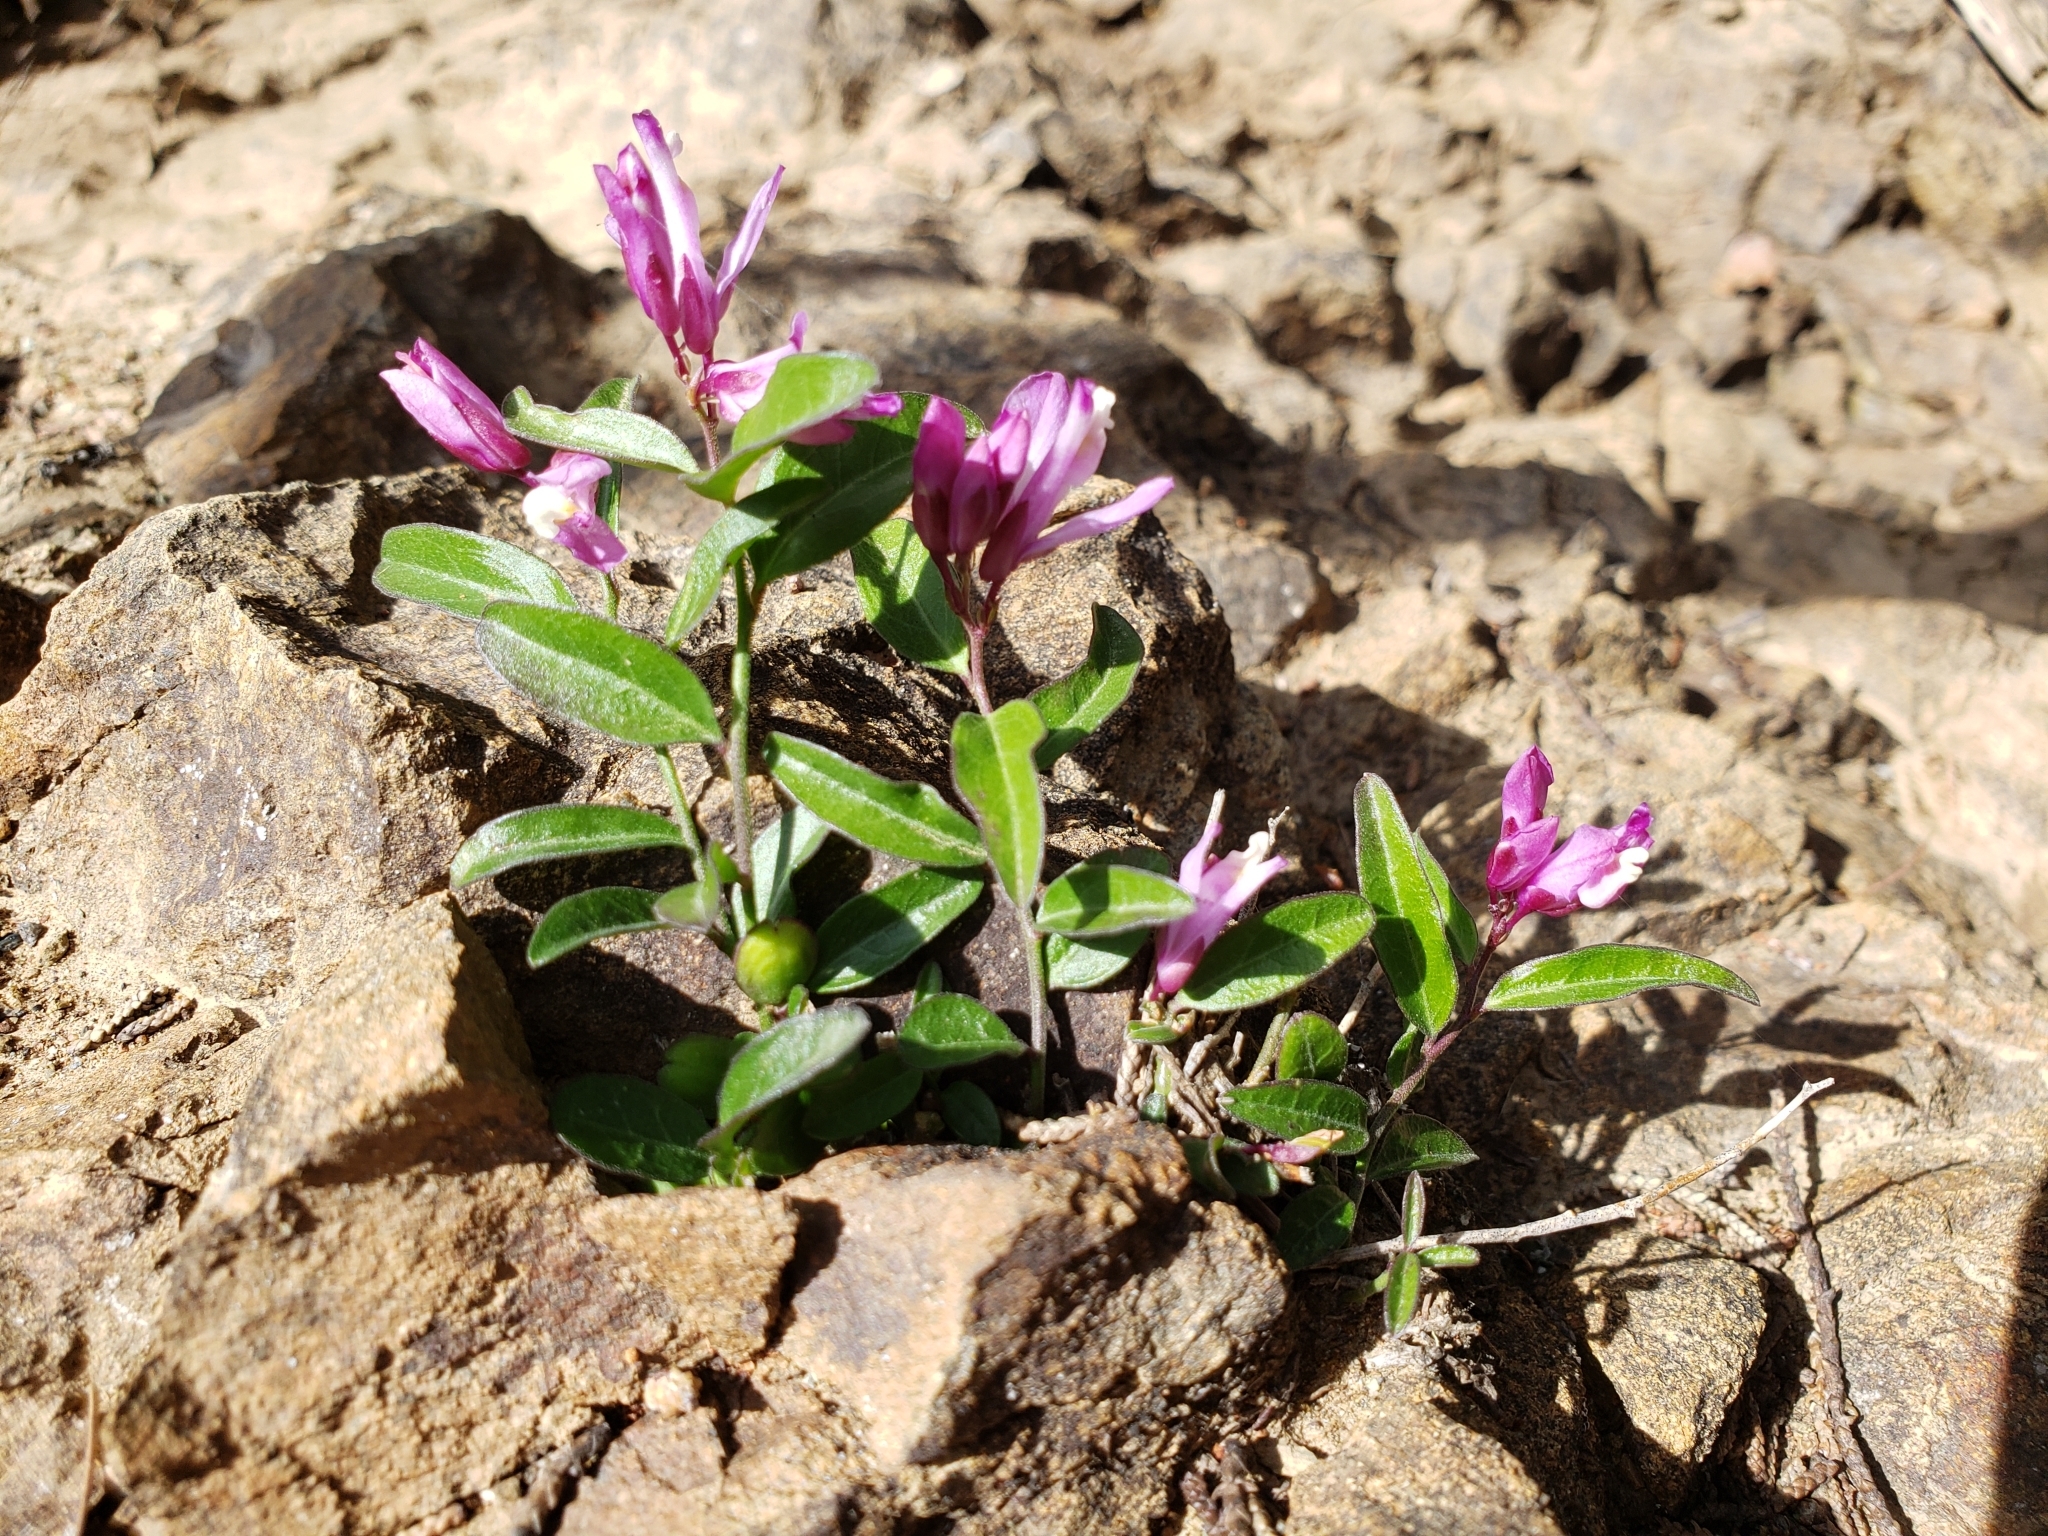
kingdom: Plantae
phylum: Tracheophyta
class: Magnoliopsida
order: Fabales
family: Polygalaceae
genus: Rhinotropis
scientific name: Rhinotropis californica
